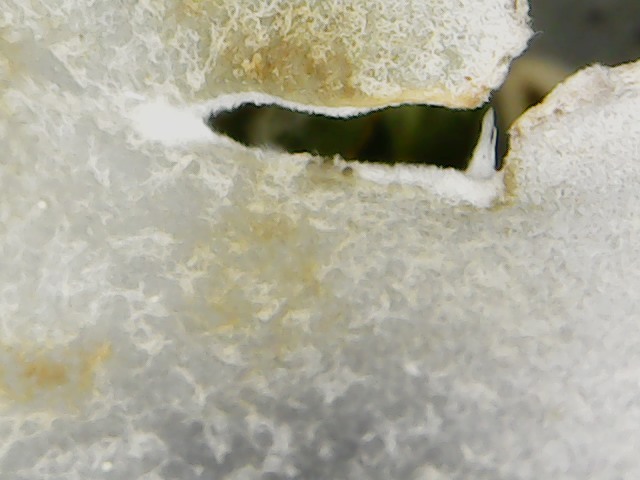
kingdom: Fungi
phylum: Ascomycota
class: Lecanoromycetes
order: Peltigerales
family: Peltigeraceae
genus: Peltigera
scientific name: Peltigera praetextata
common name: Scaly dog-lichen
